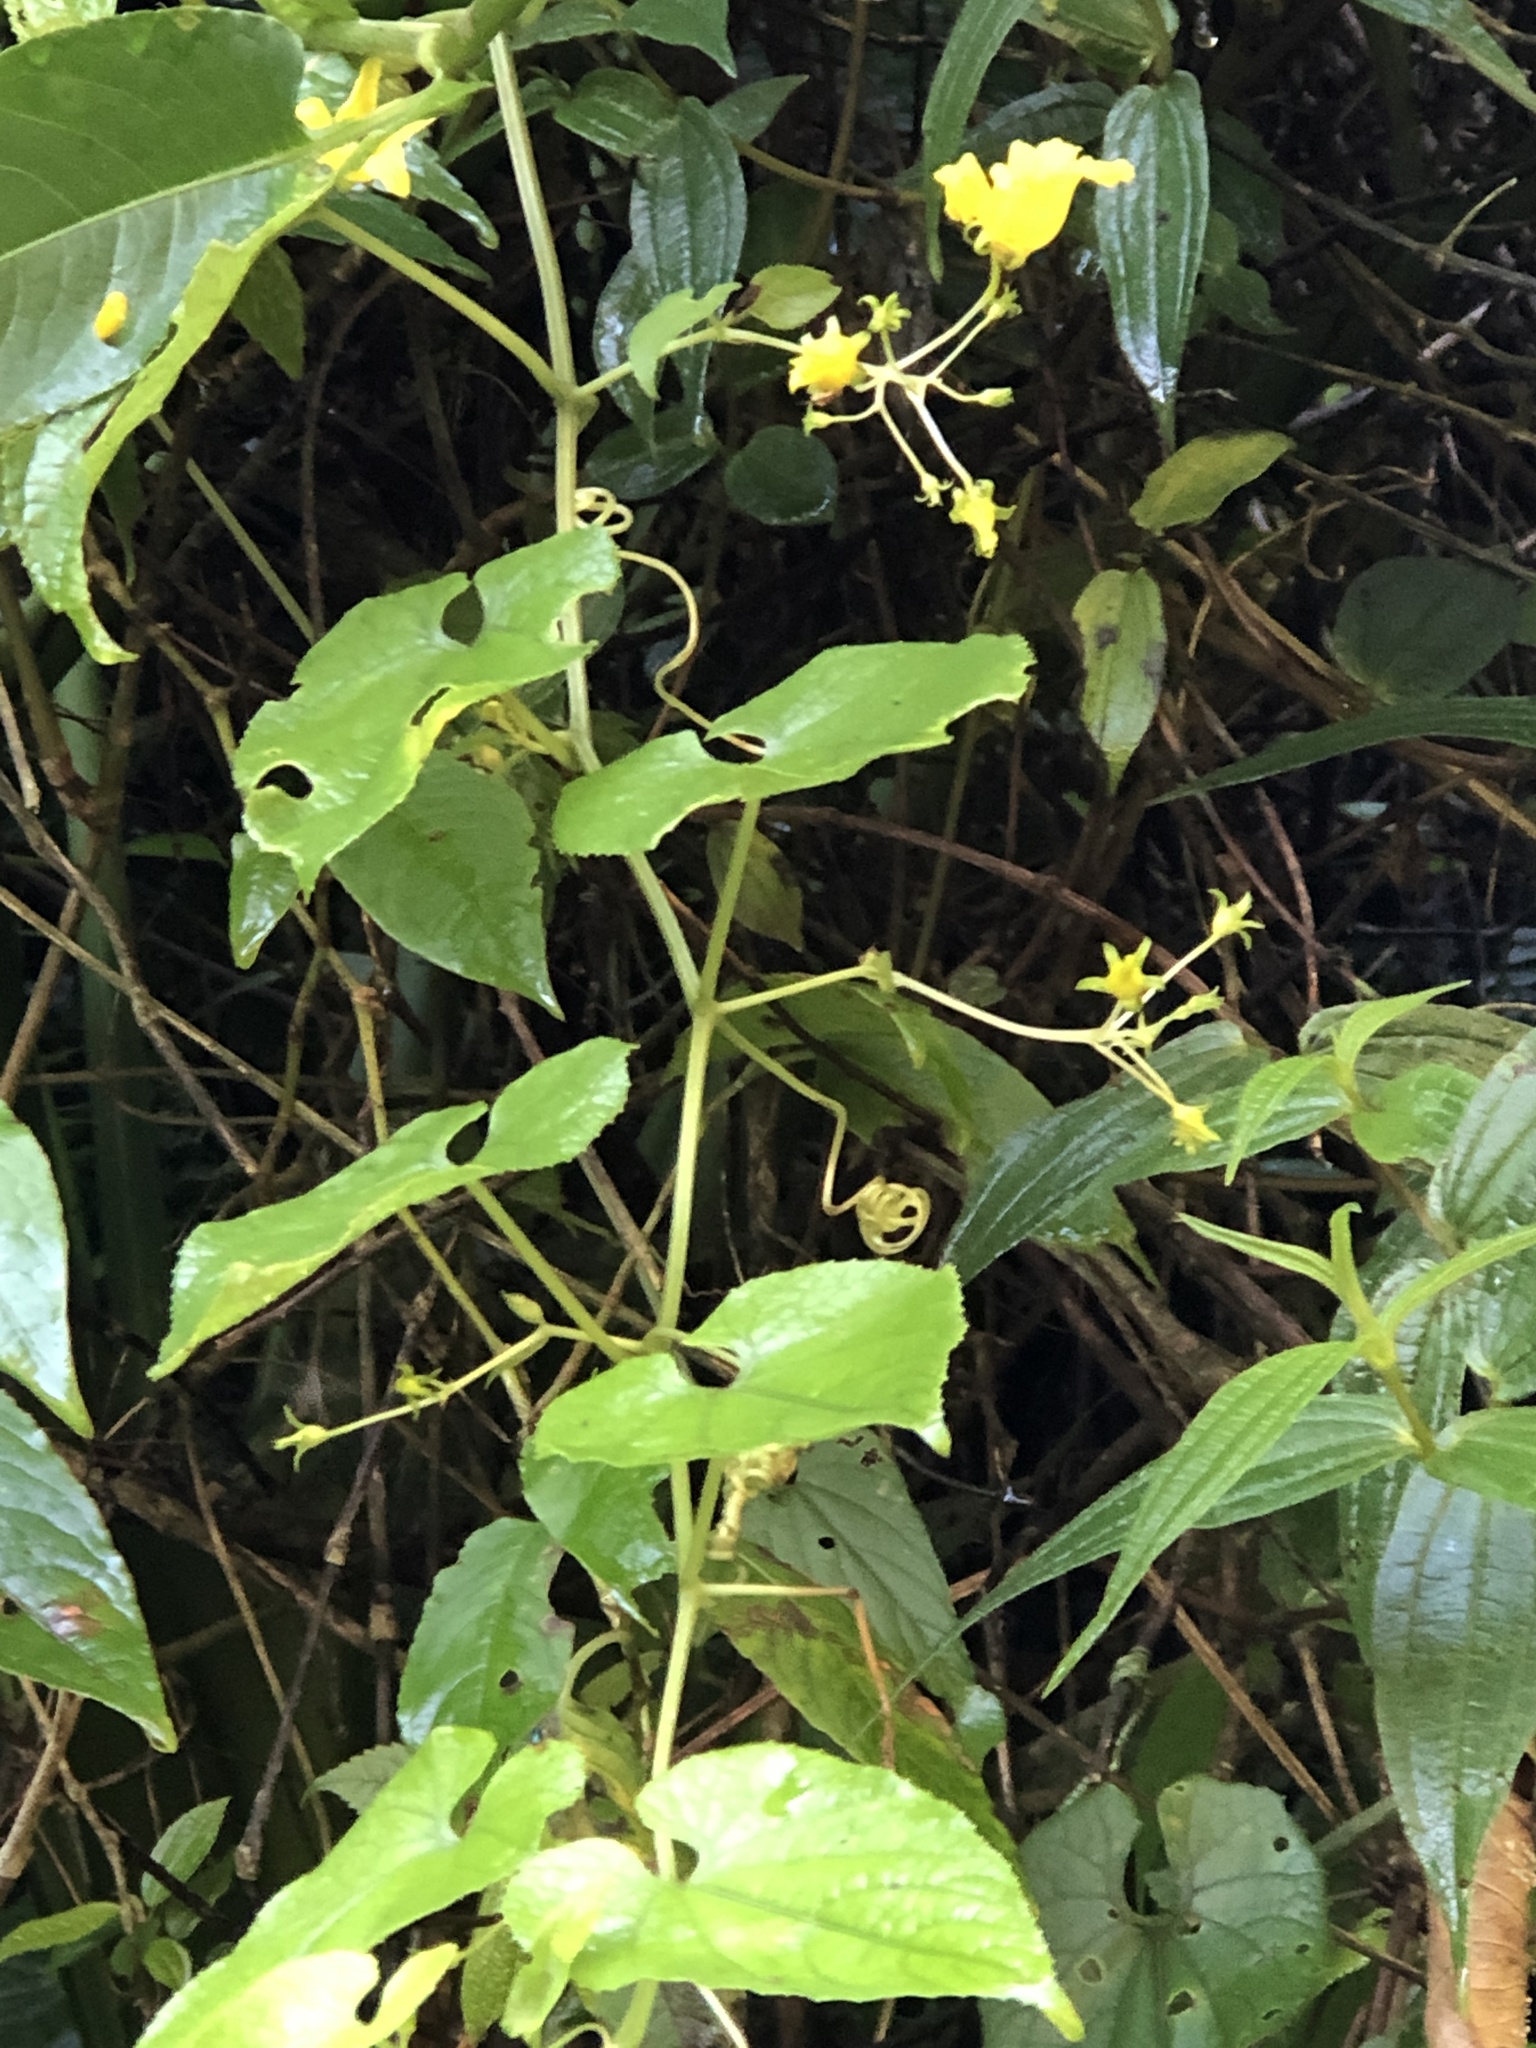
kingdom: Plantae
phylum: Tracheophyta
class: Magnoliopsida
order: Cucurbitales
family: Cucurbitaceae
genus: Thladiantha
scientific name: Thladiantha punctata
